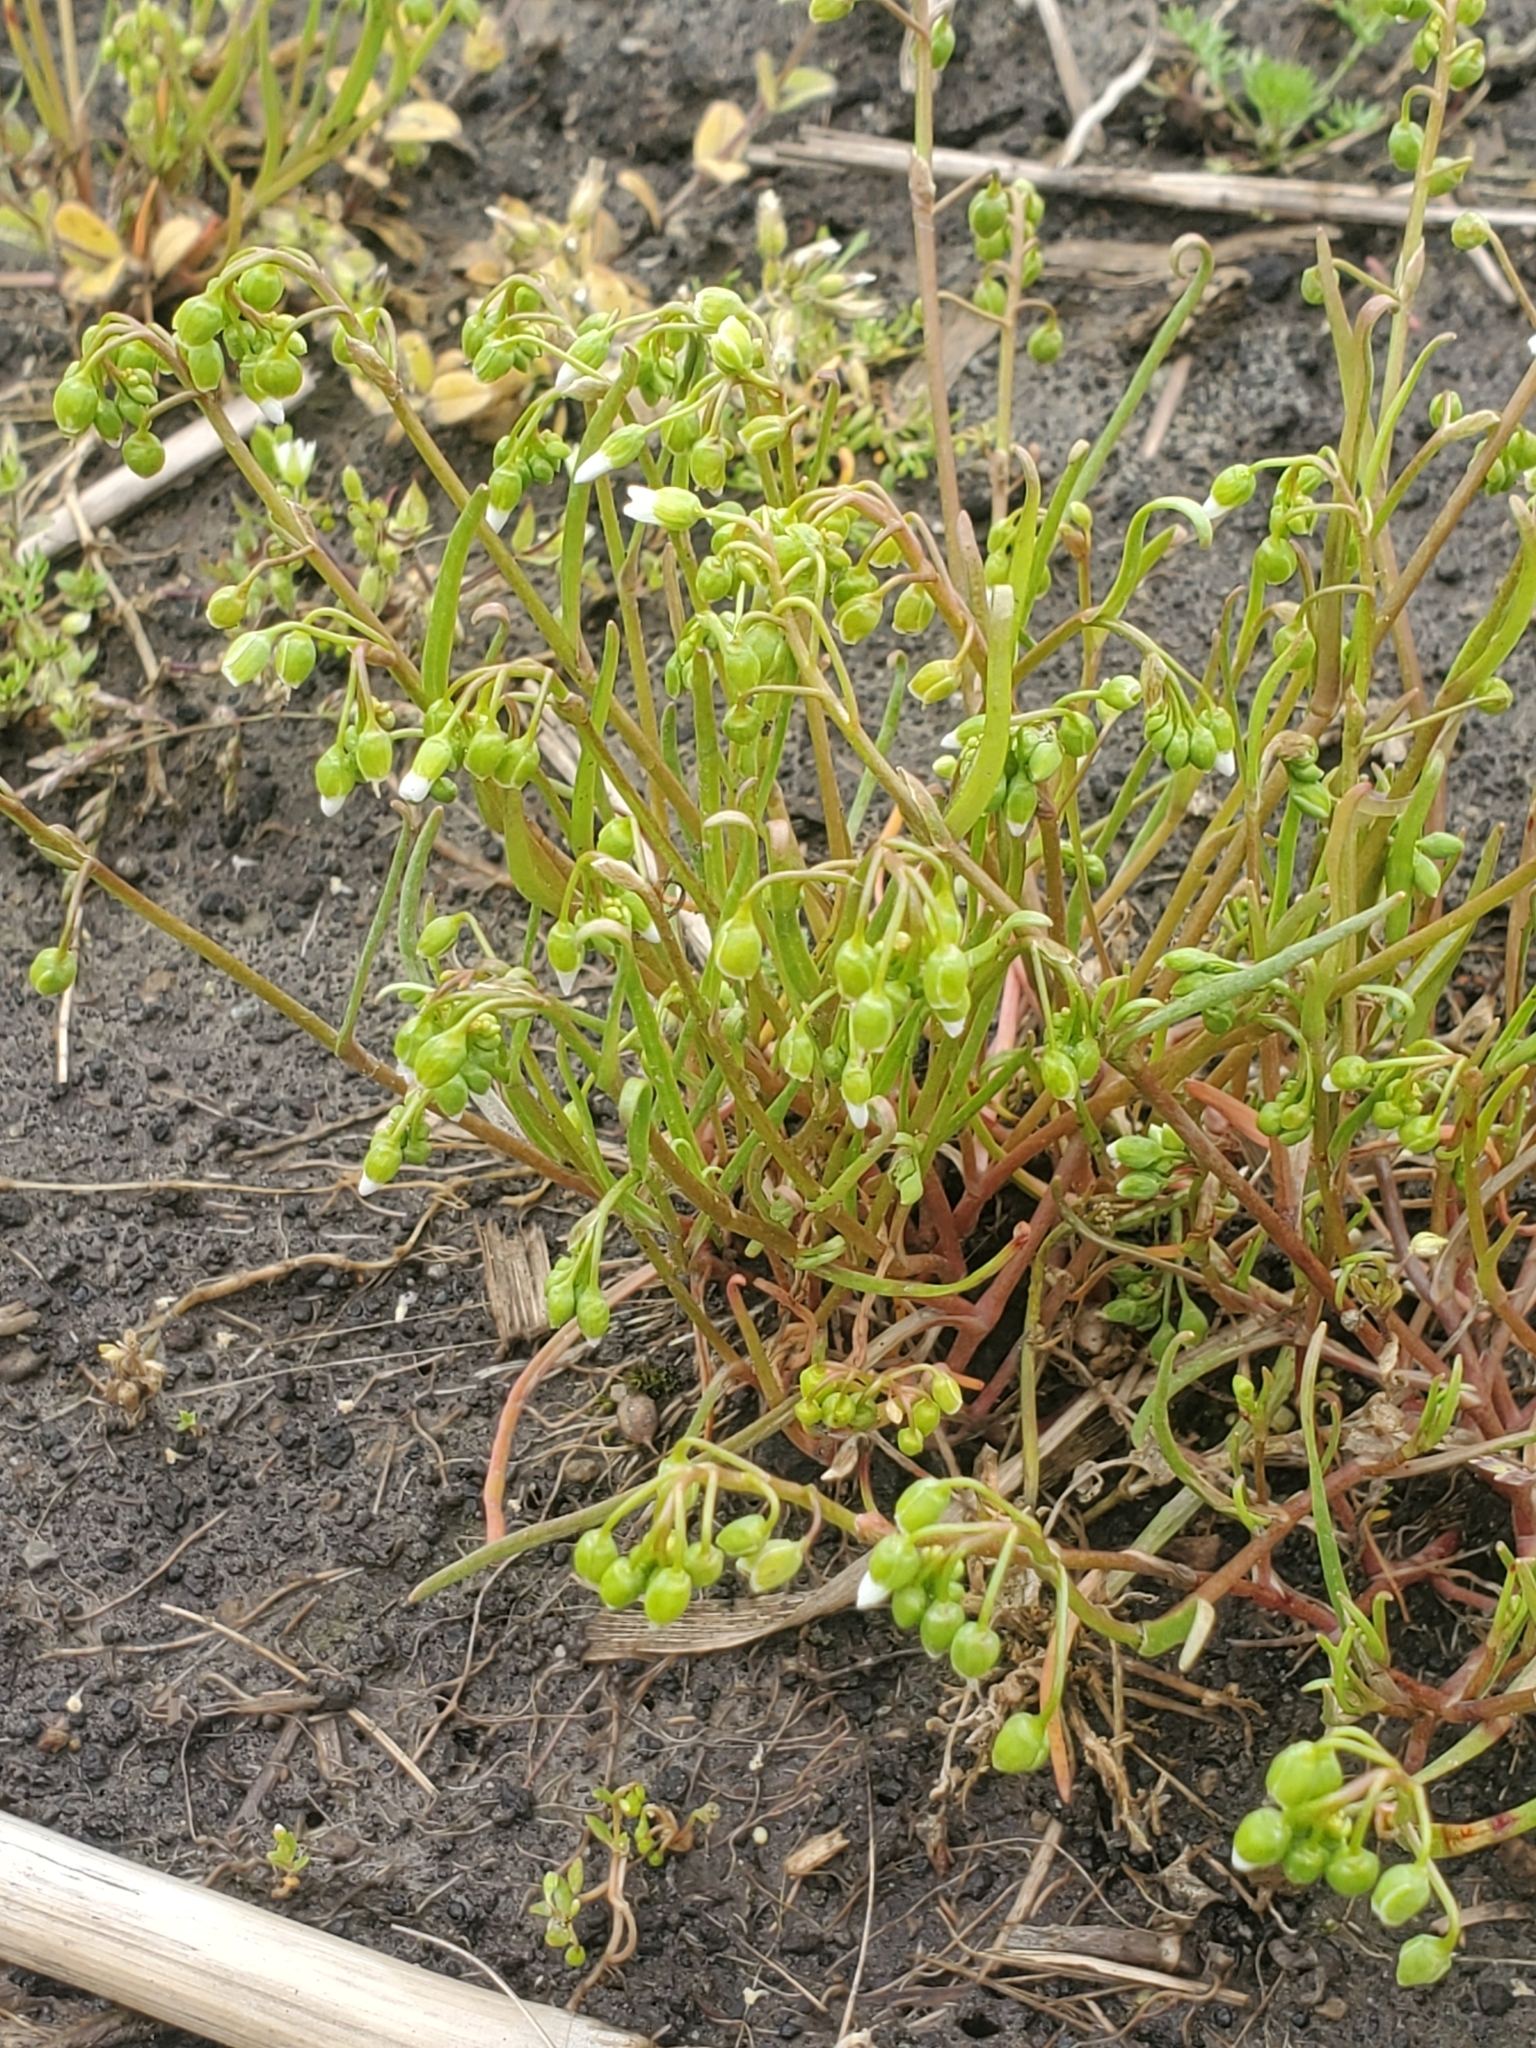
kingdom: Plantae
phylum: Tracheophyta
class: Magnoliopsida
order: Caryophyllales
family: Montiaceae
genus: Montia
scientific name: Montia linearis
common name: Narrow-leaf montia
